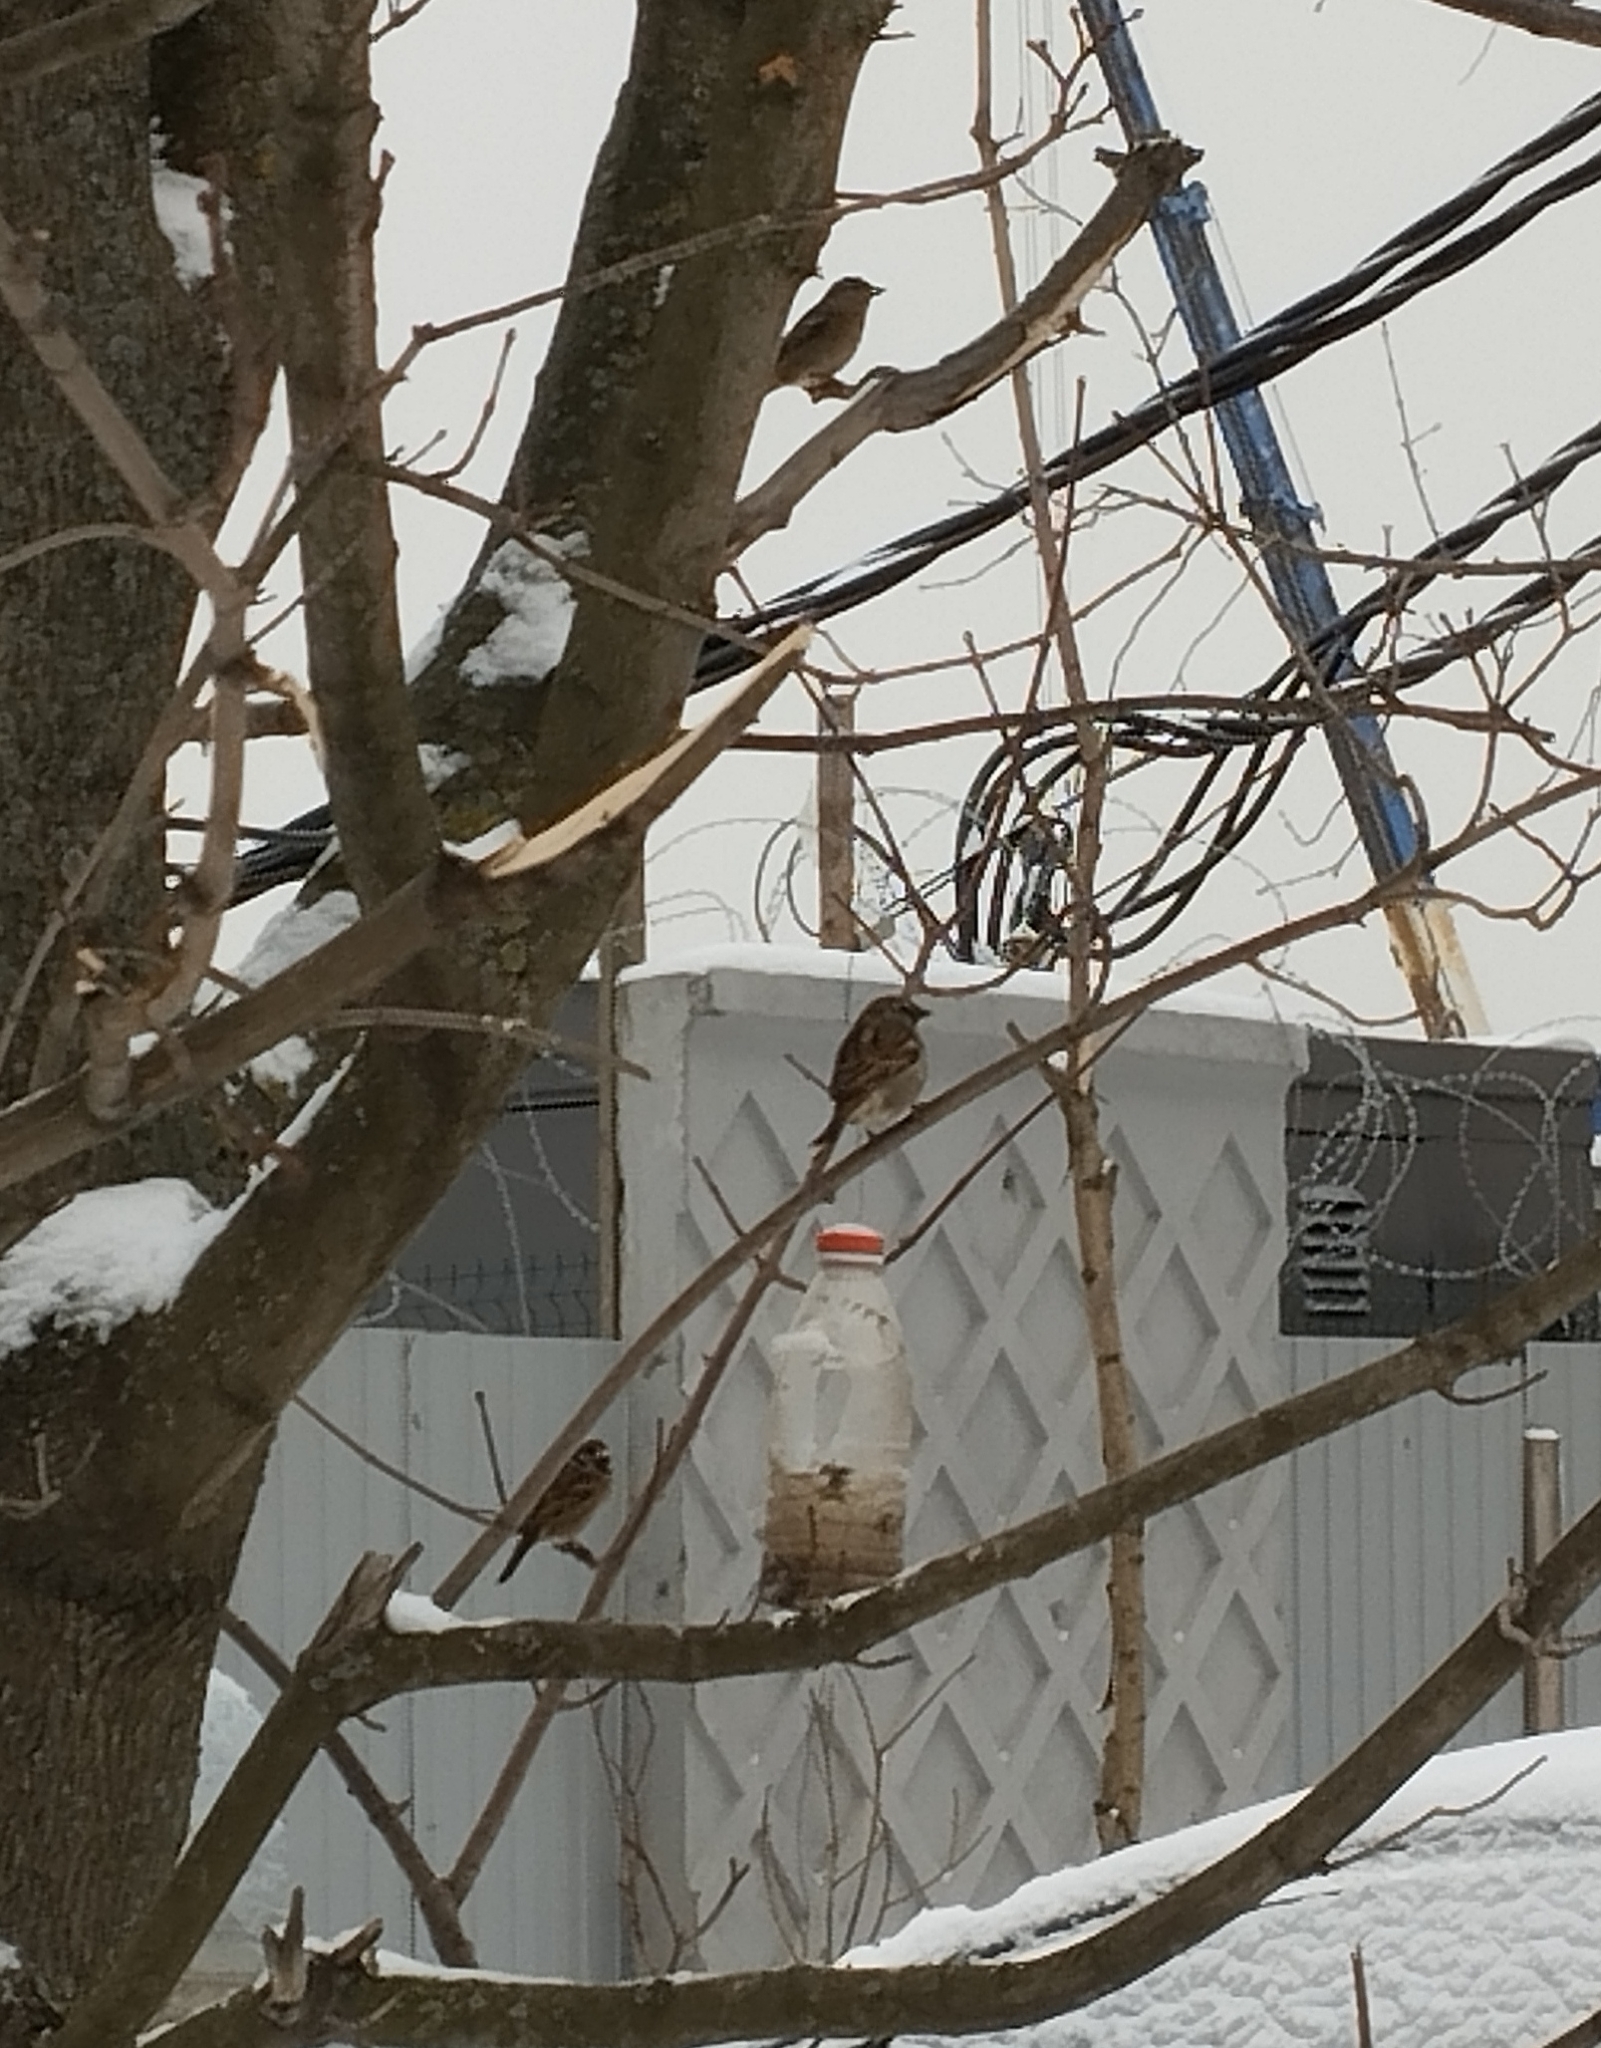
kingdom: Animalia
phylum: Chordata
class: Aves
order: Passeriformes
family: Passeridae
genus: Passer
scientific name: Passer domesticus
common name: House sparrow
